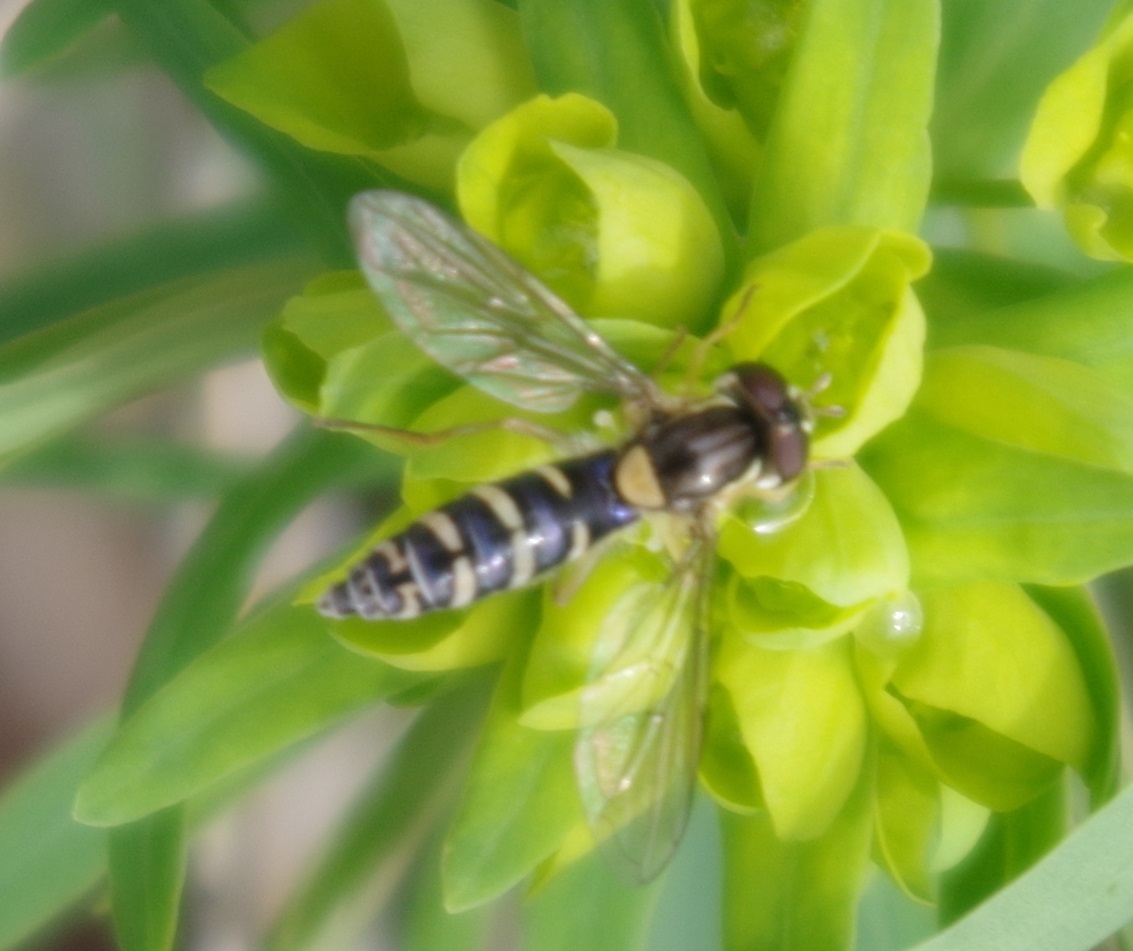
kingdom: Animalia
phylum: Arthropoda
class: Insecta
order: Diptera
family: Syrphidae
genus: Sphaerophoria
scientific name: Sphaerophoria
